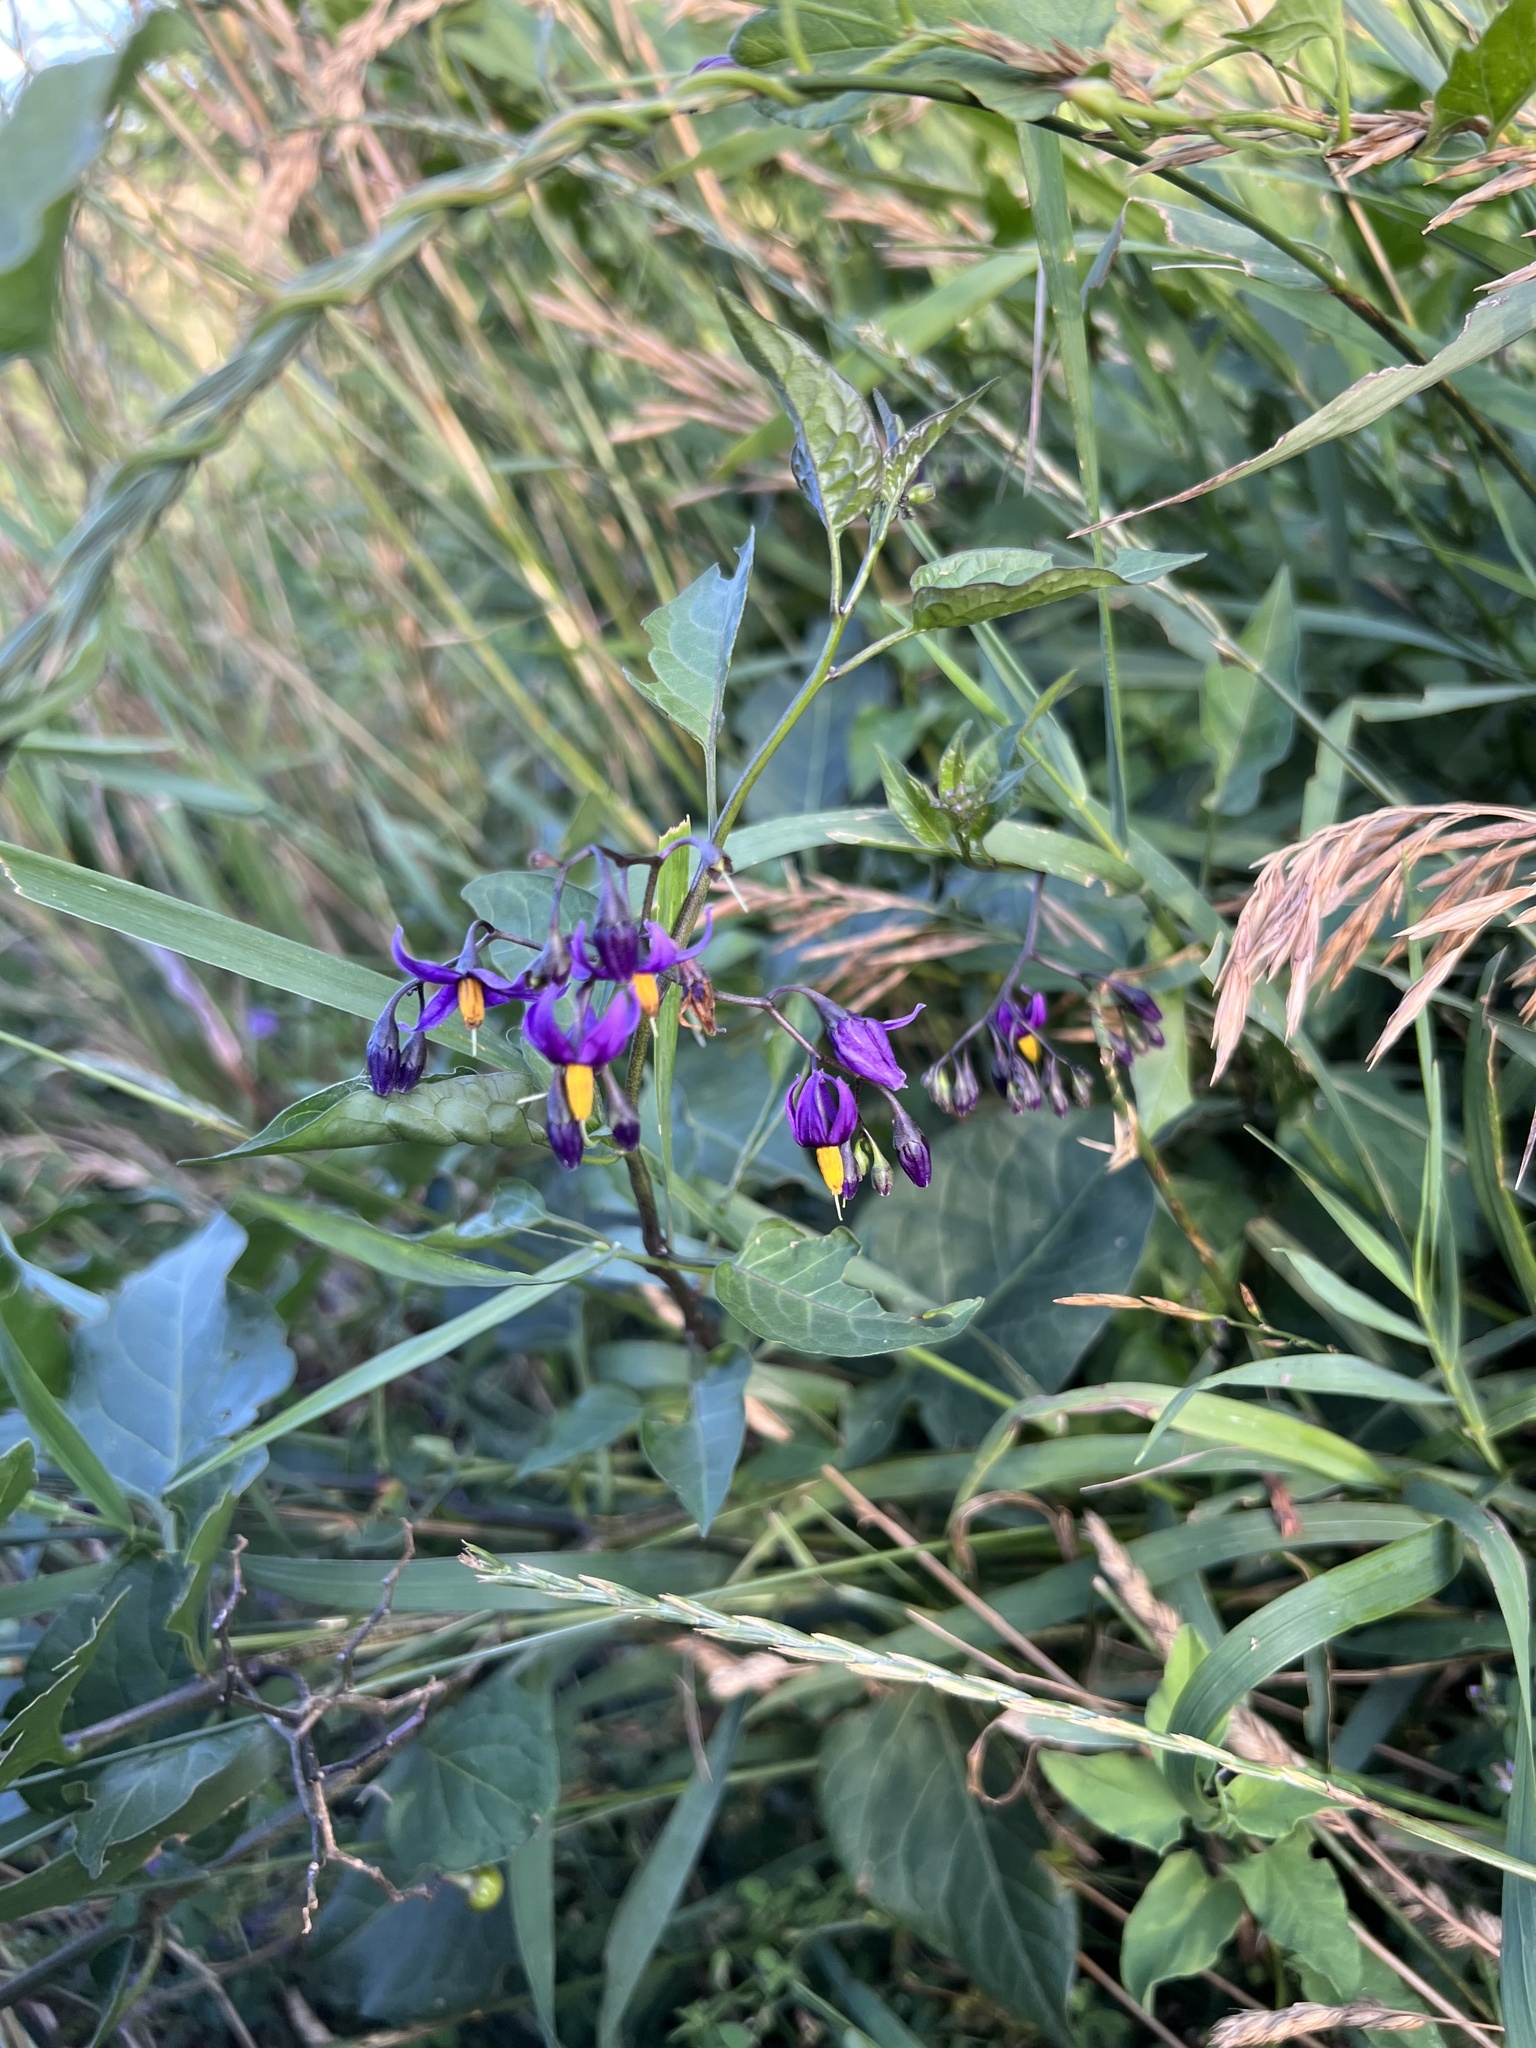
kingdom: Plantae
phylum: Tracheophyta
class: Magnoliopsida
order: Solanales
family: Solanaceae
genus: Solanum
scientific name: Solanum dulcamara
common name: Climbing nightshade
